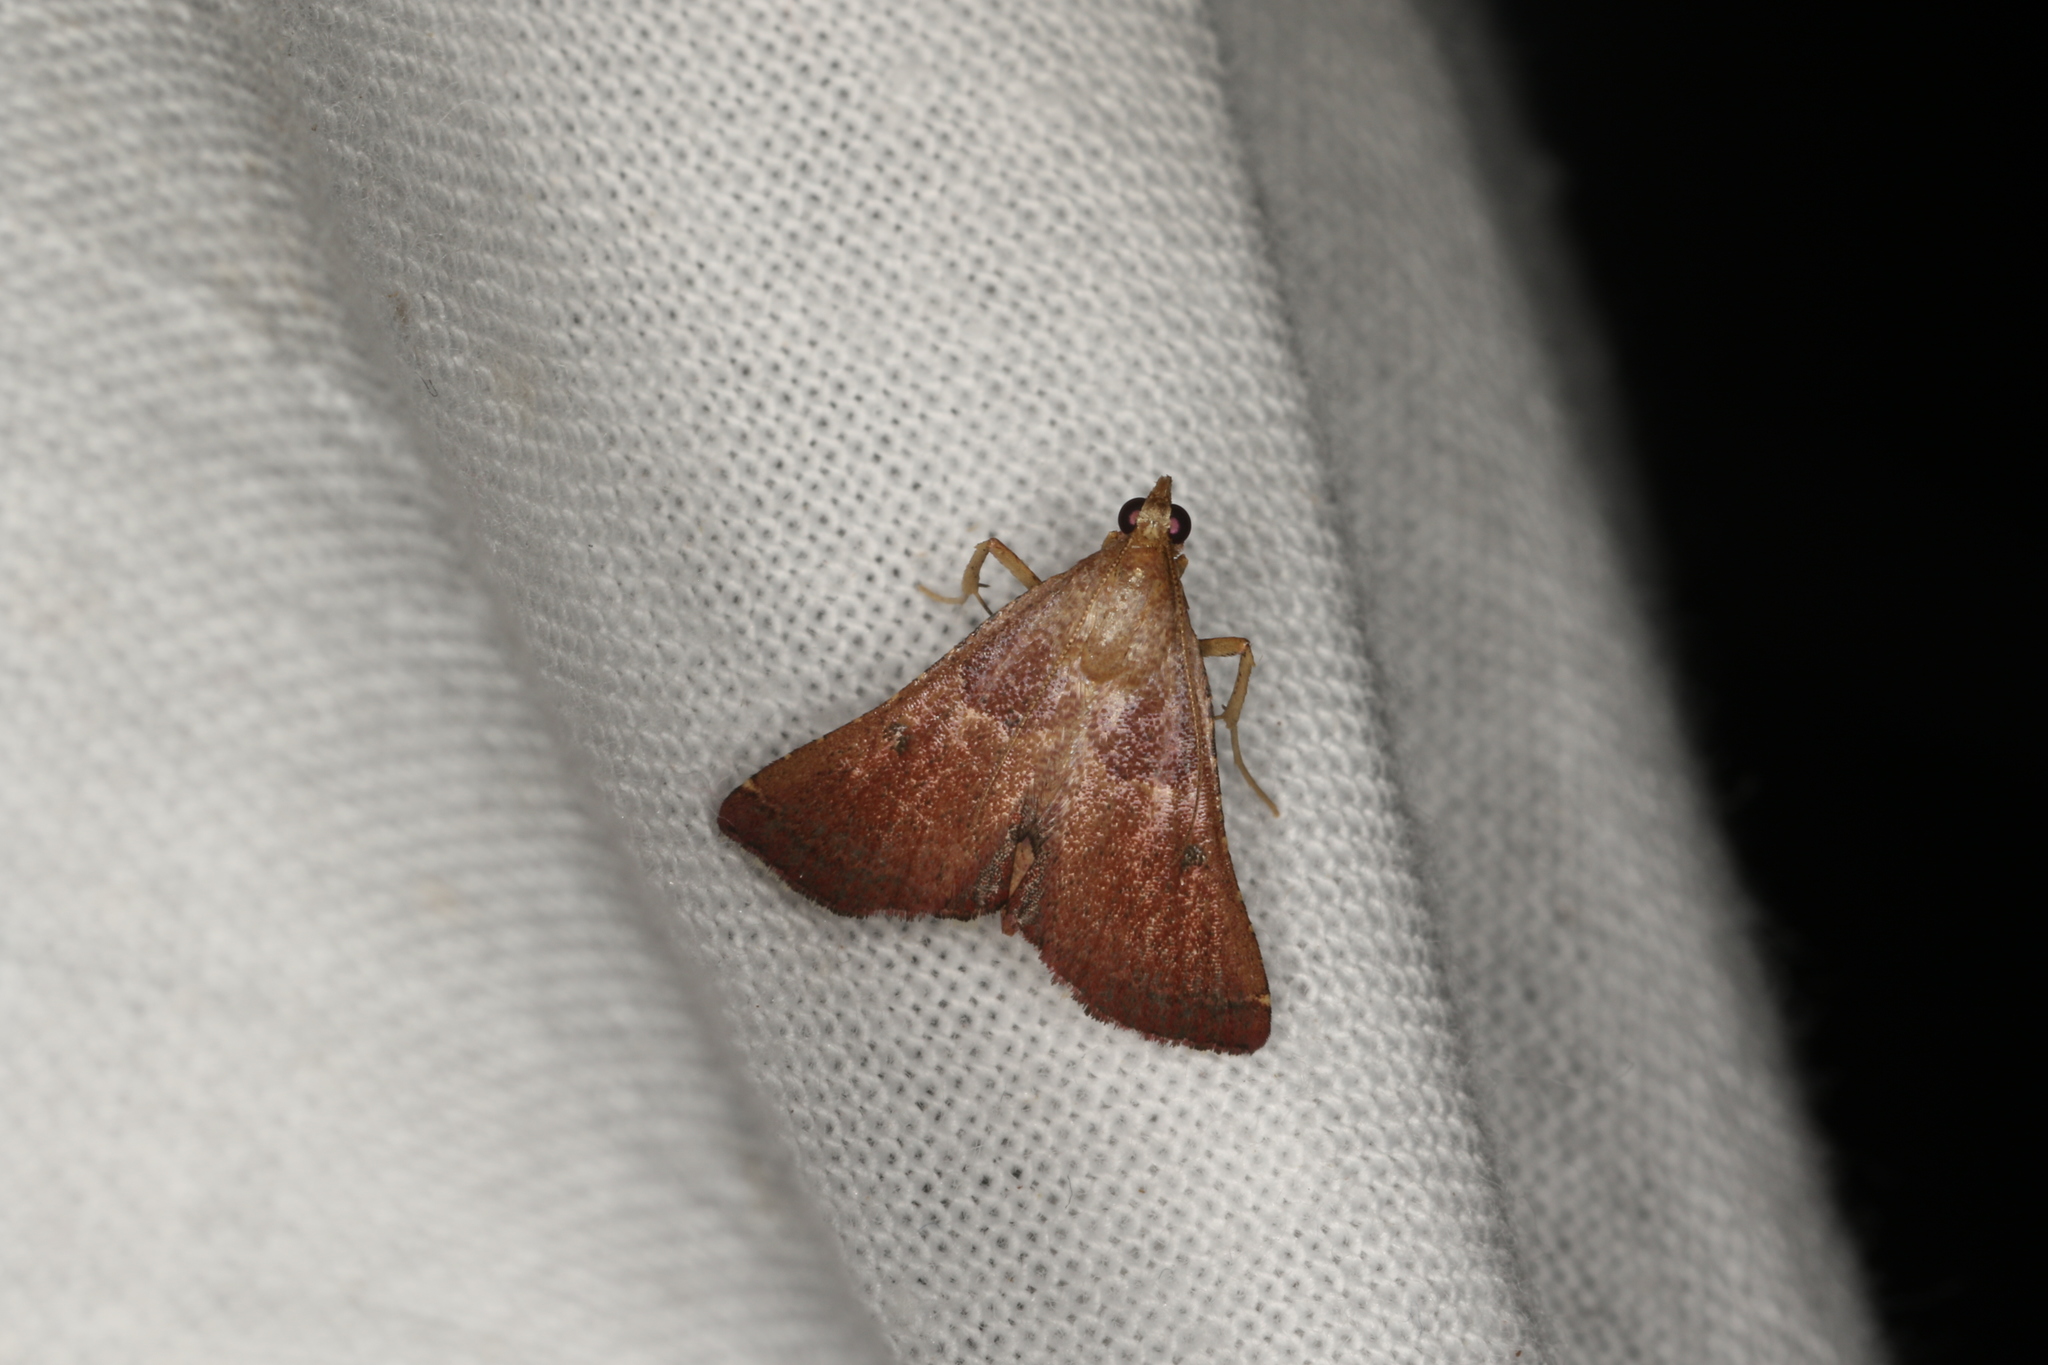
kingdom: Animalia
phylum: Arthropoda
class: Insecta
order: Lepidoptera
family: Pyralidae
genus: Endotricha
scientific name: Endotricha ignealis
